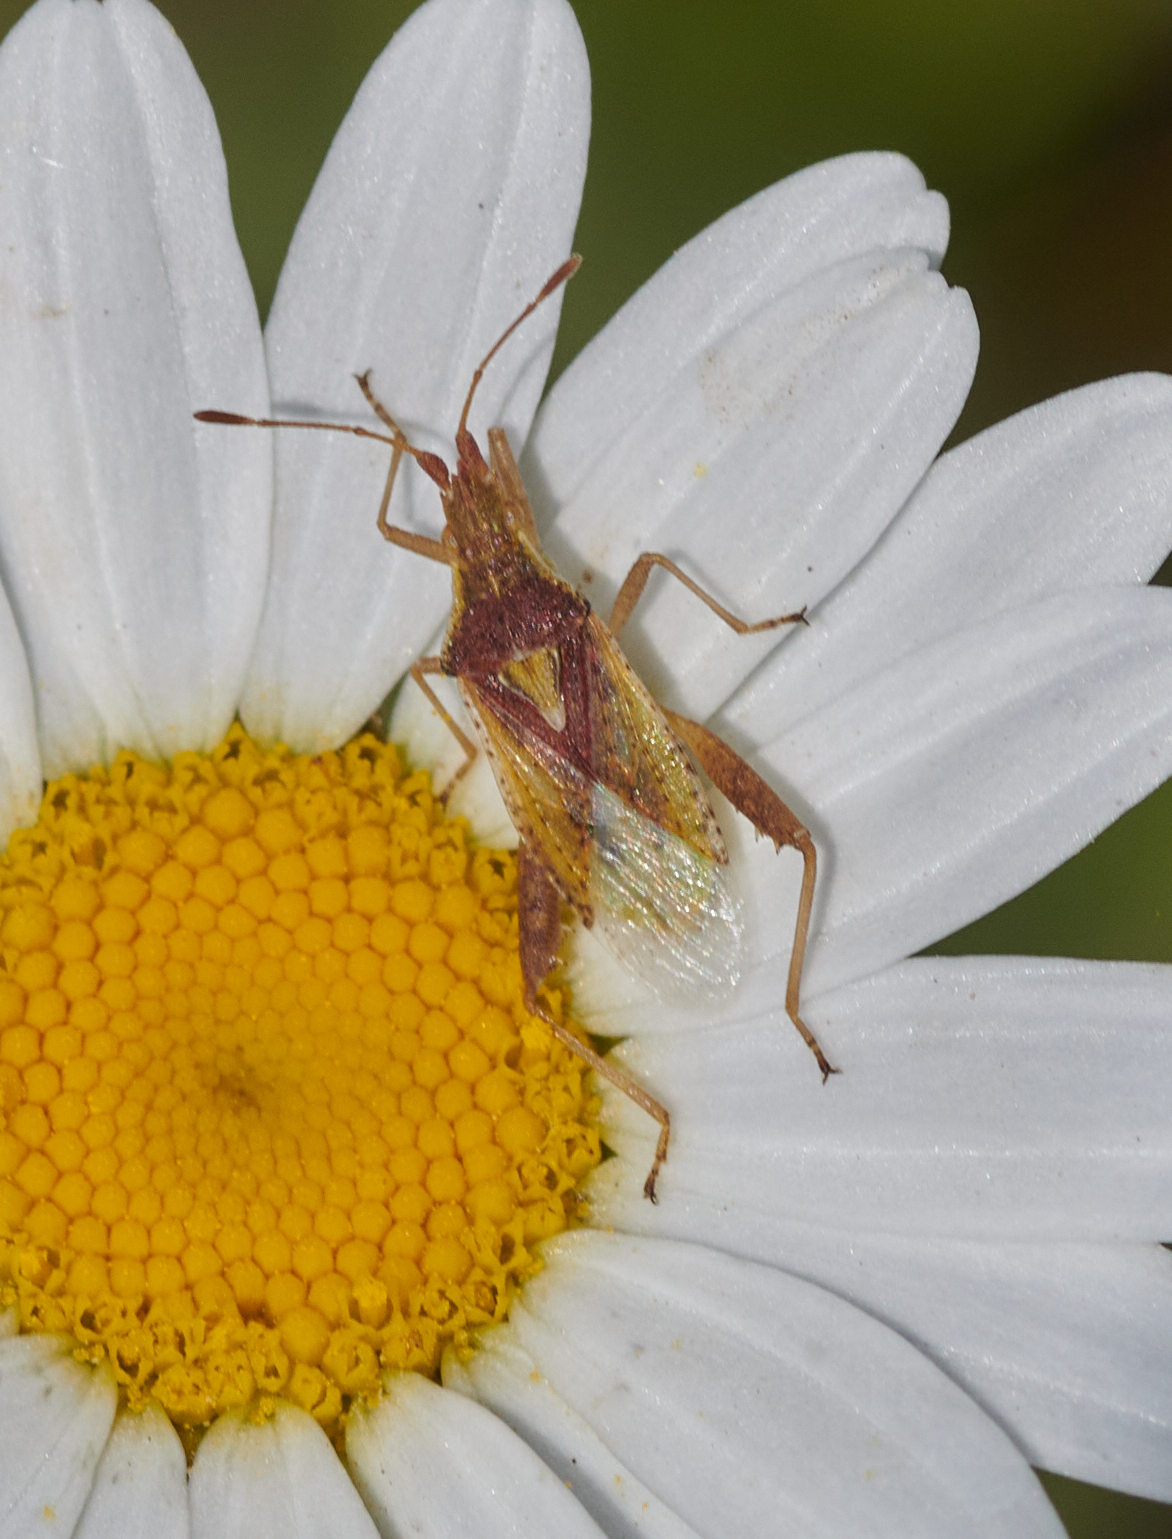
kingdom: Animalia
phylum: Arthropoda
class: Insecta
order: Hemiptera
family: Rhopalidae
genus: Harmostes
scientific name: Harmostes reflexulus
